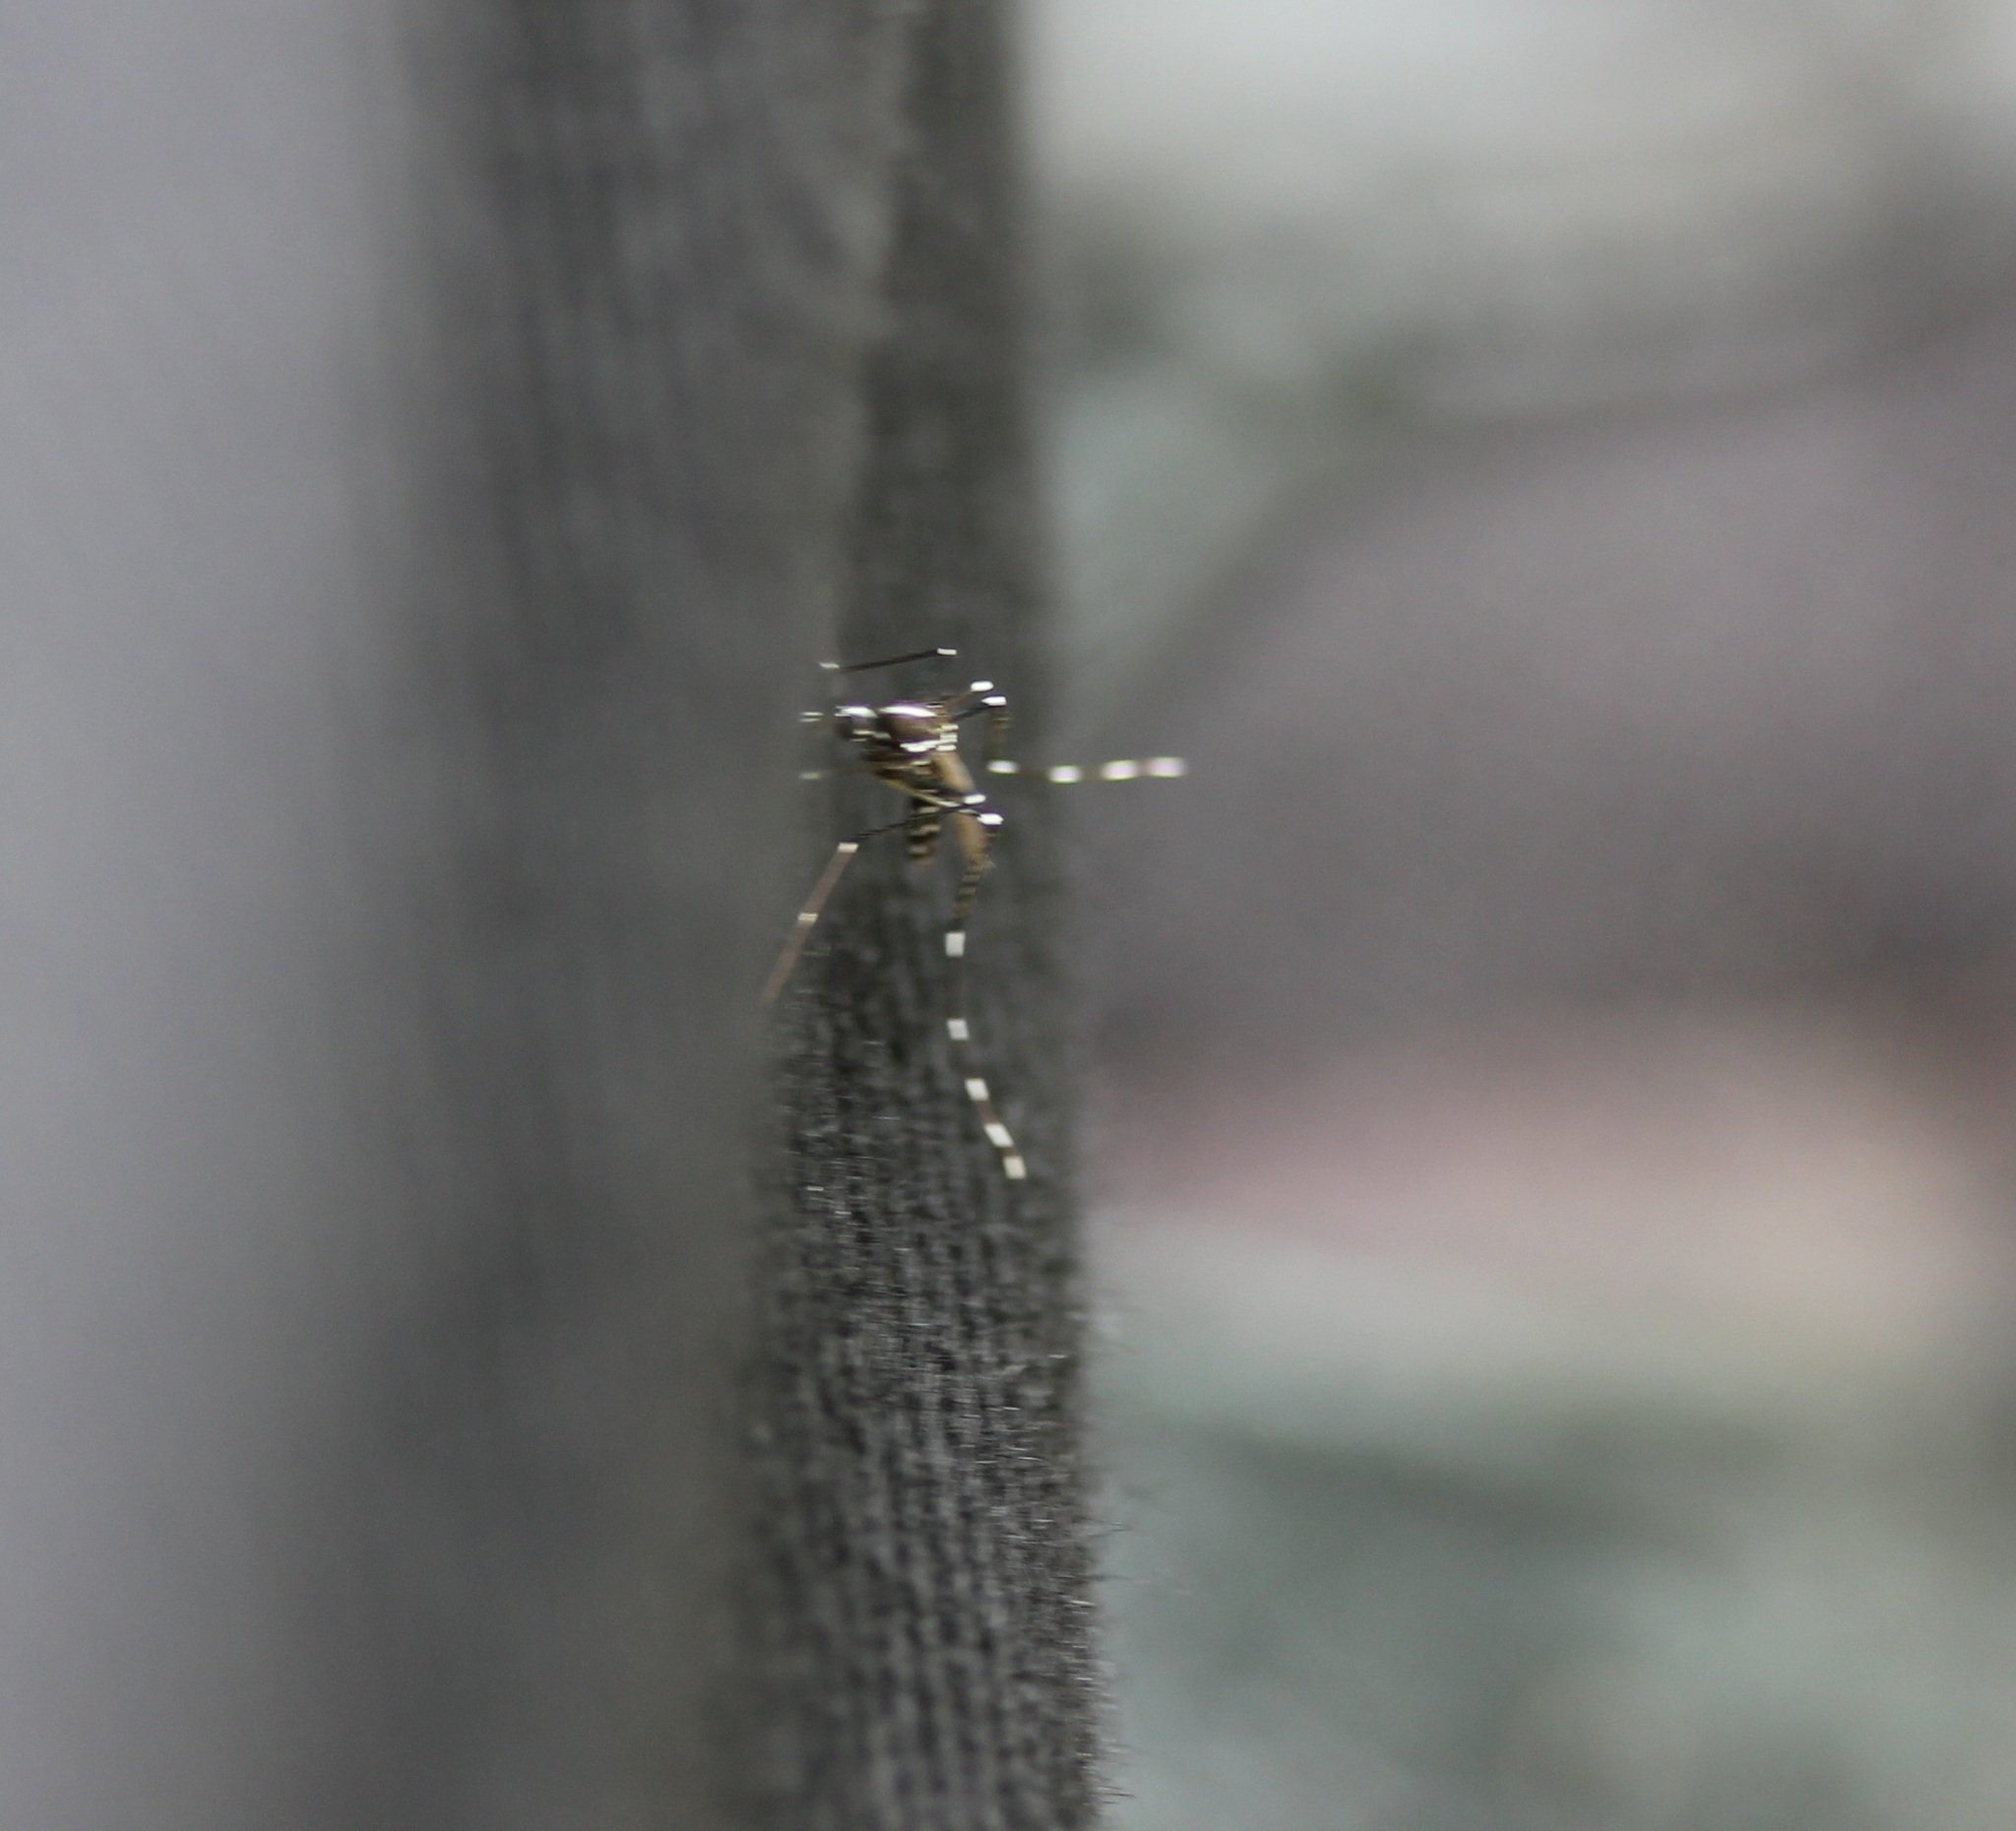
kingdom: Animalia
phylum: Arthropoda
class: Insecta
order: Diptera
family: Culicidae
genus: Aedes
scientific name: Aedes albopictus
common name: Tiger mosquito
